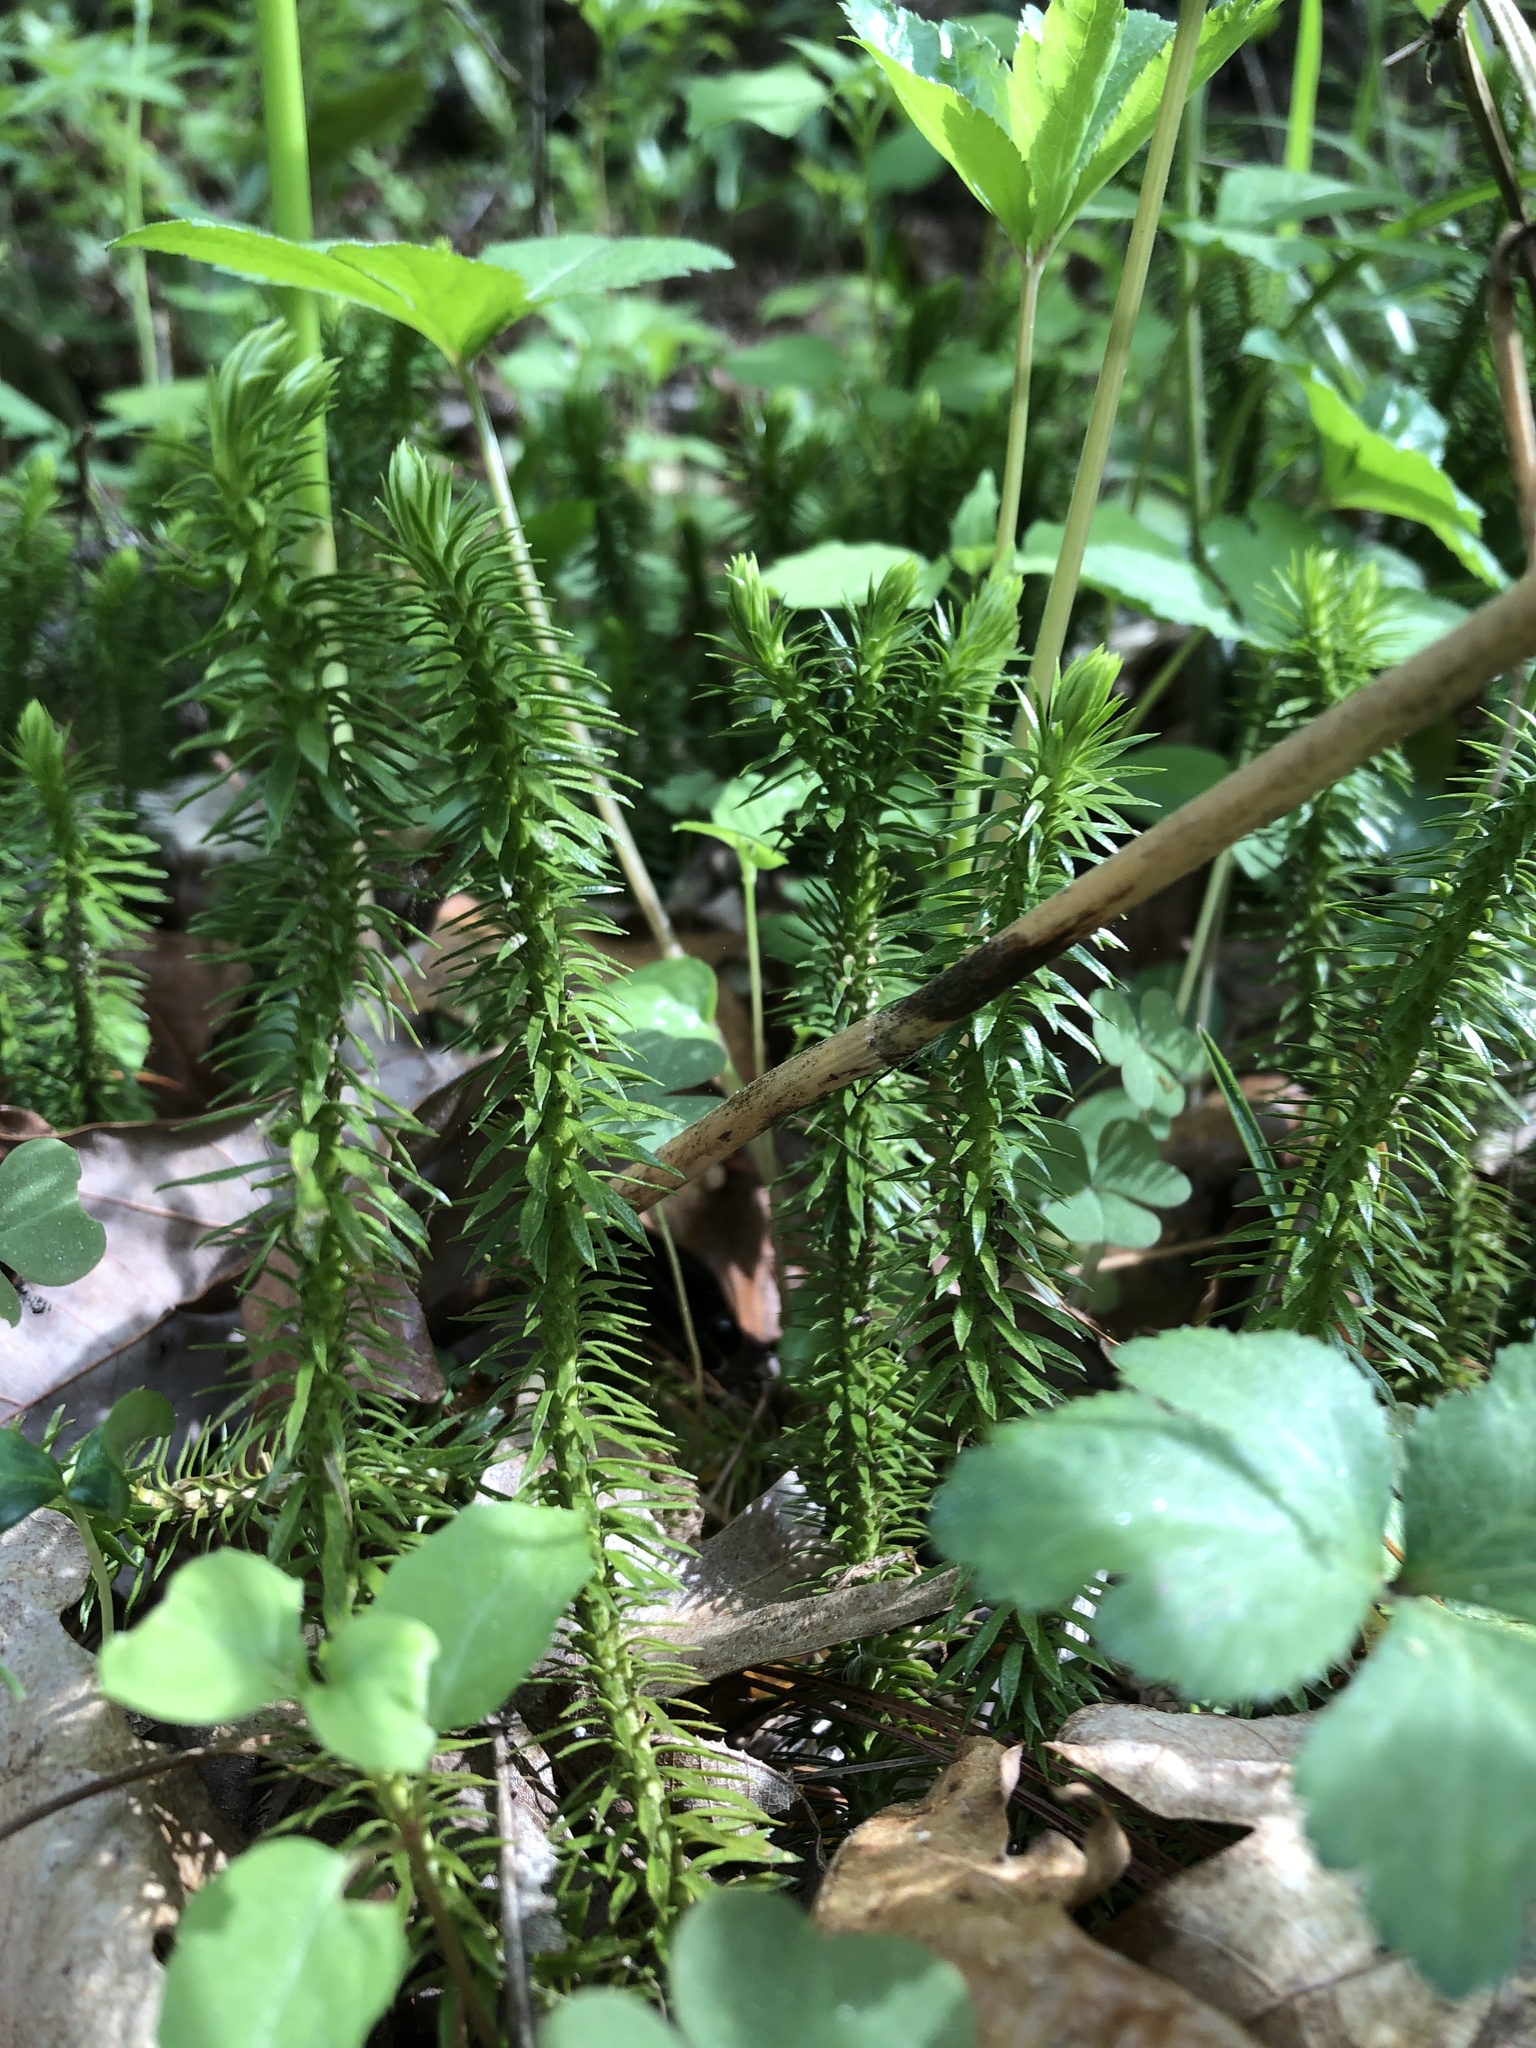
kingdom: Plantae
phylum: Tracheophyta
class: Lycopodiopsida
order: Lycopodiales
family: Lycopodiaceae
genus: Huperzia
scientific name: Huperzia lucidula
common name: Shining clubmoss
